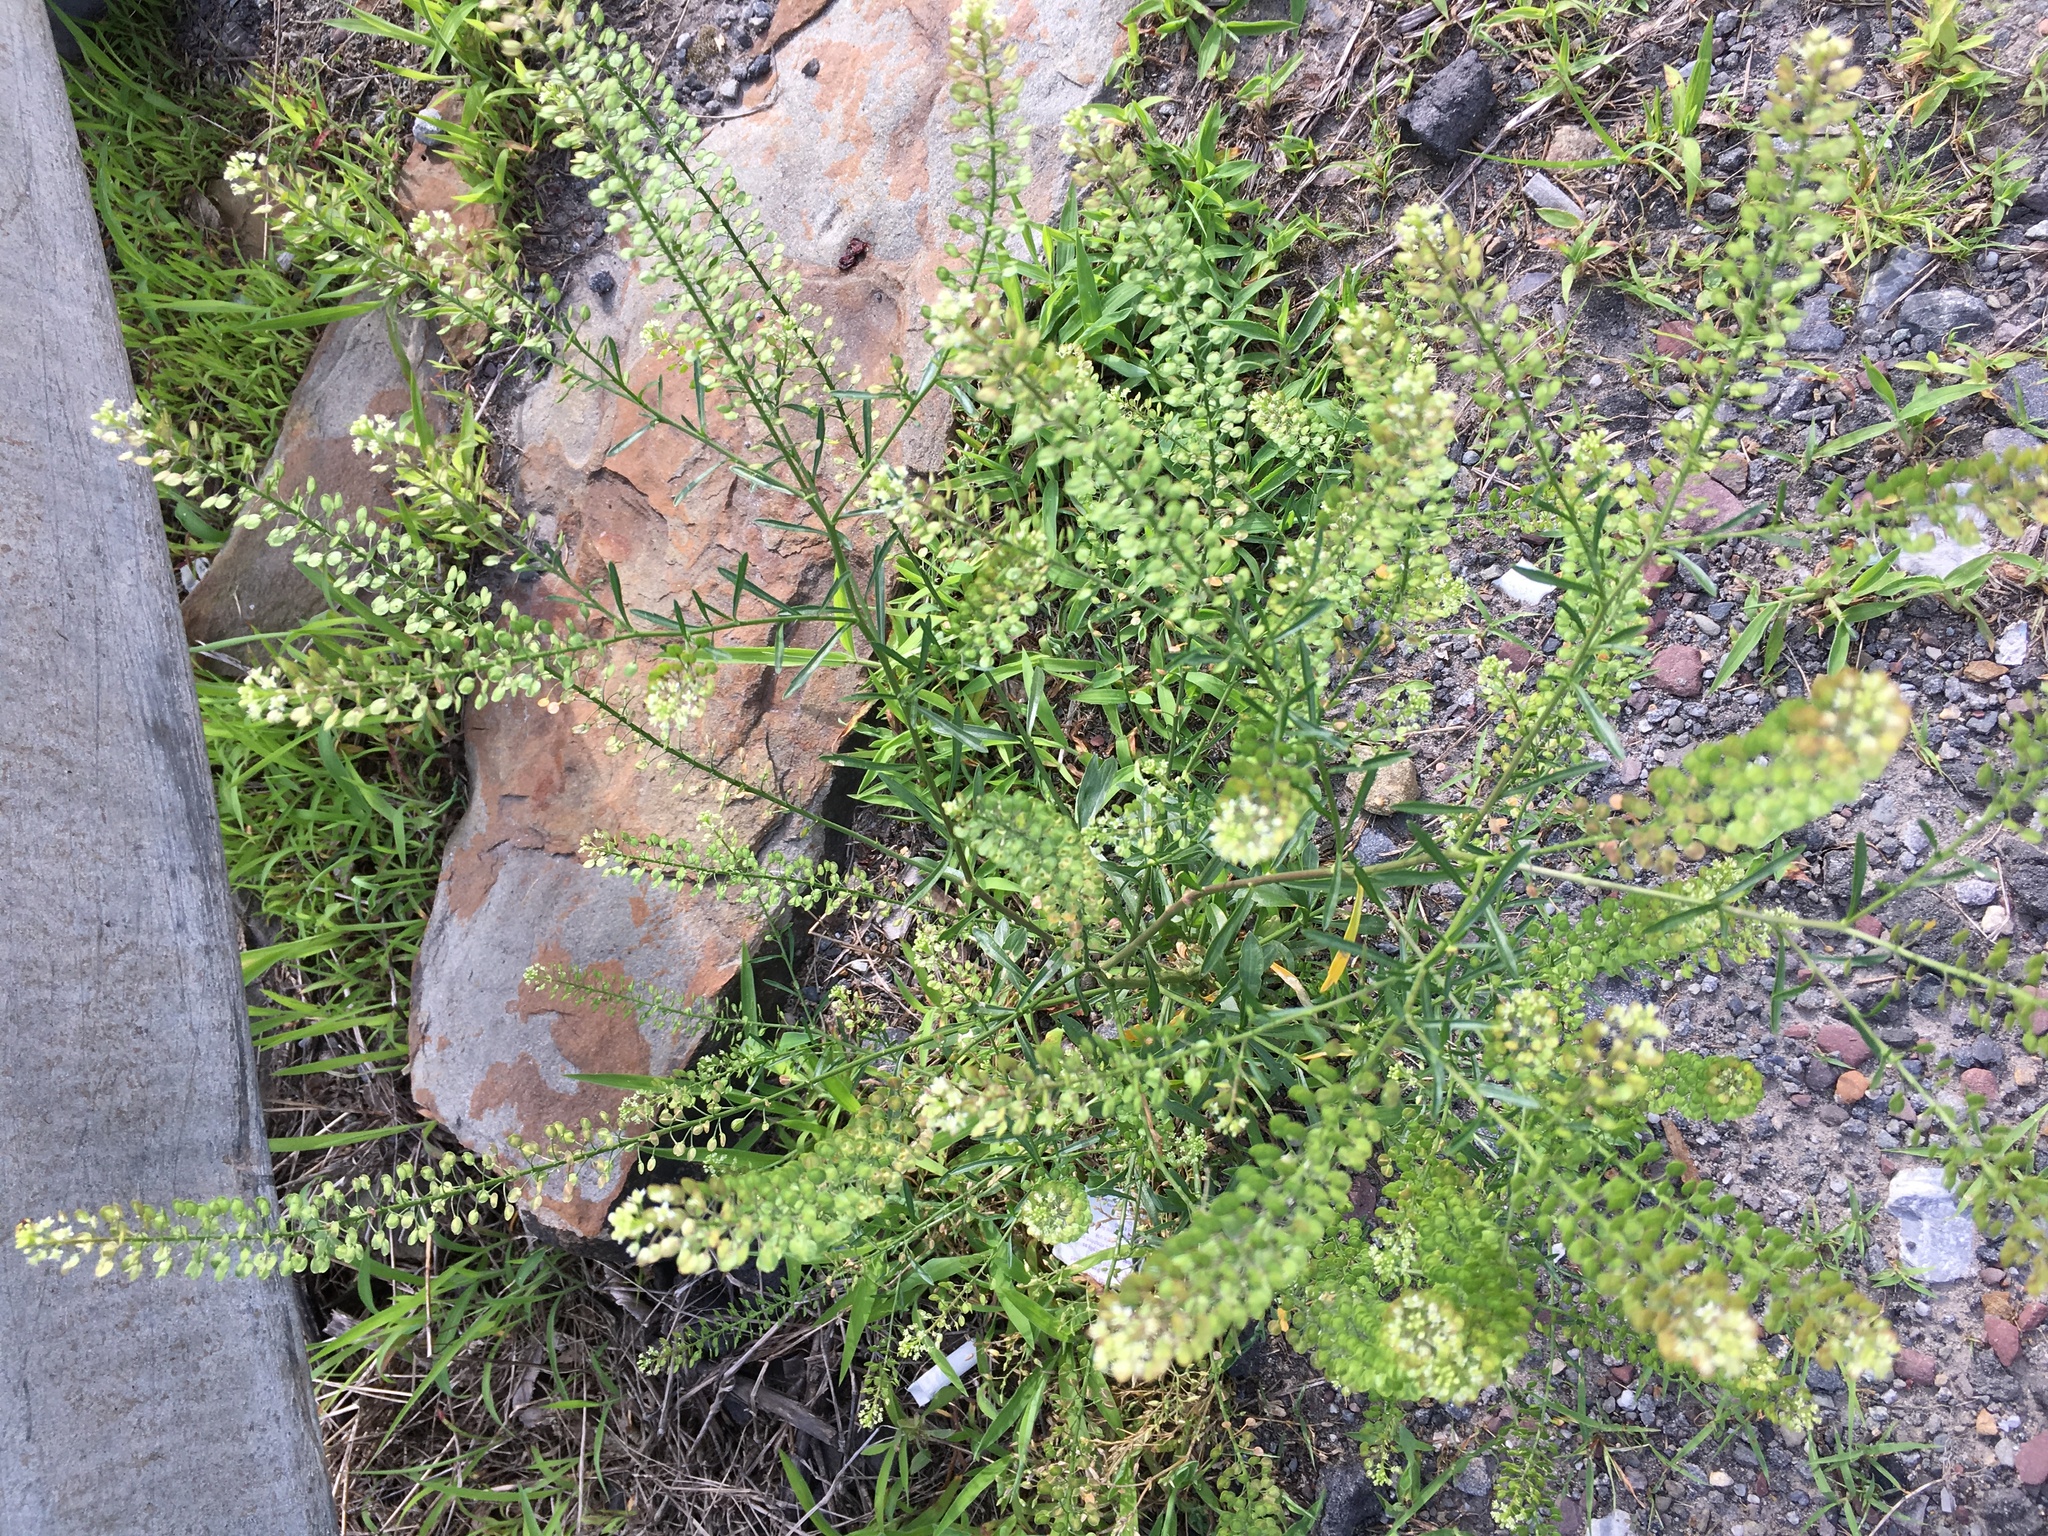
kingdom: Plantae
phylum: Tracheophyta
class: Magnoliopsida
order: Brassicales
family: Brassicaceae
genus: Lepidium
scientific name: Lepidium virginicum
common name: Least pepperwort
